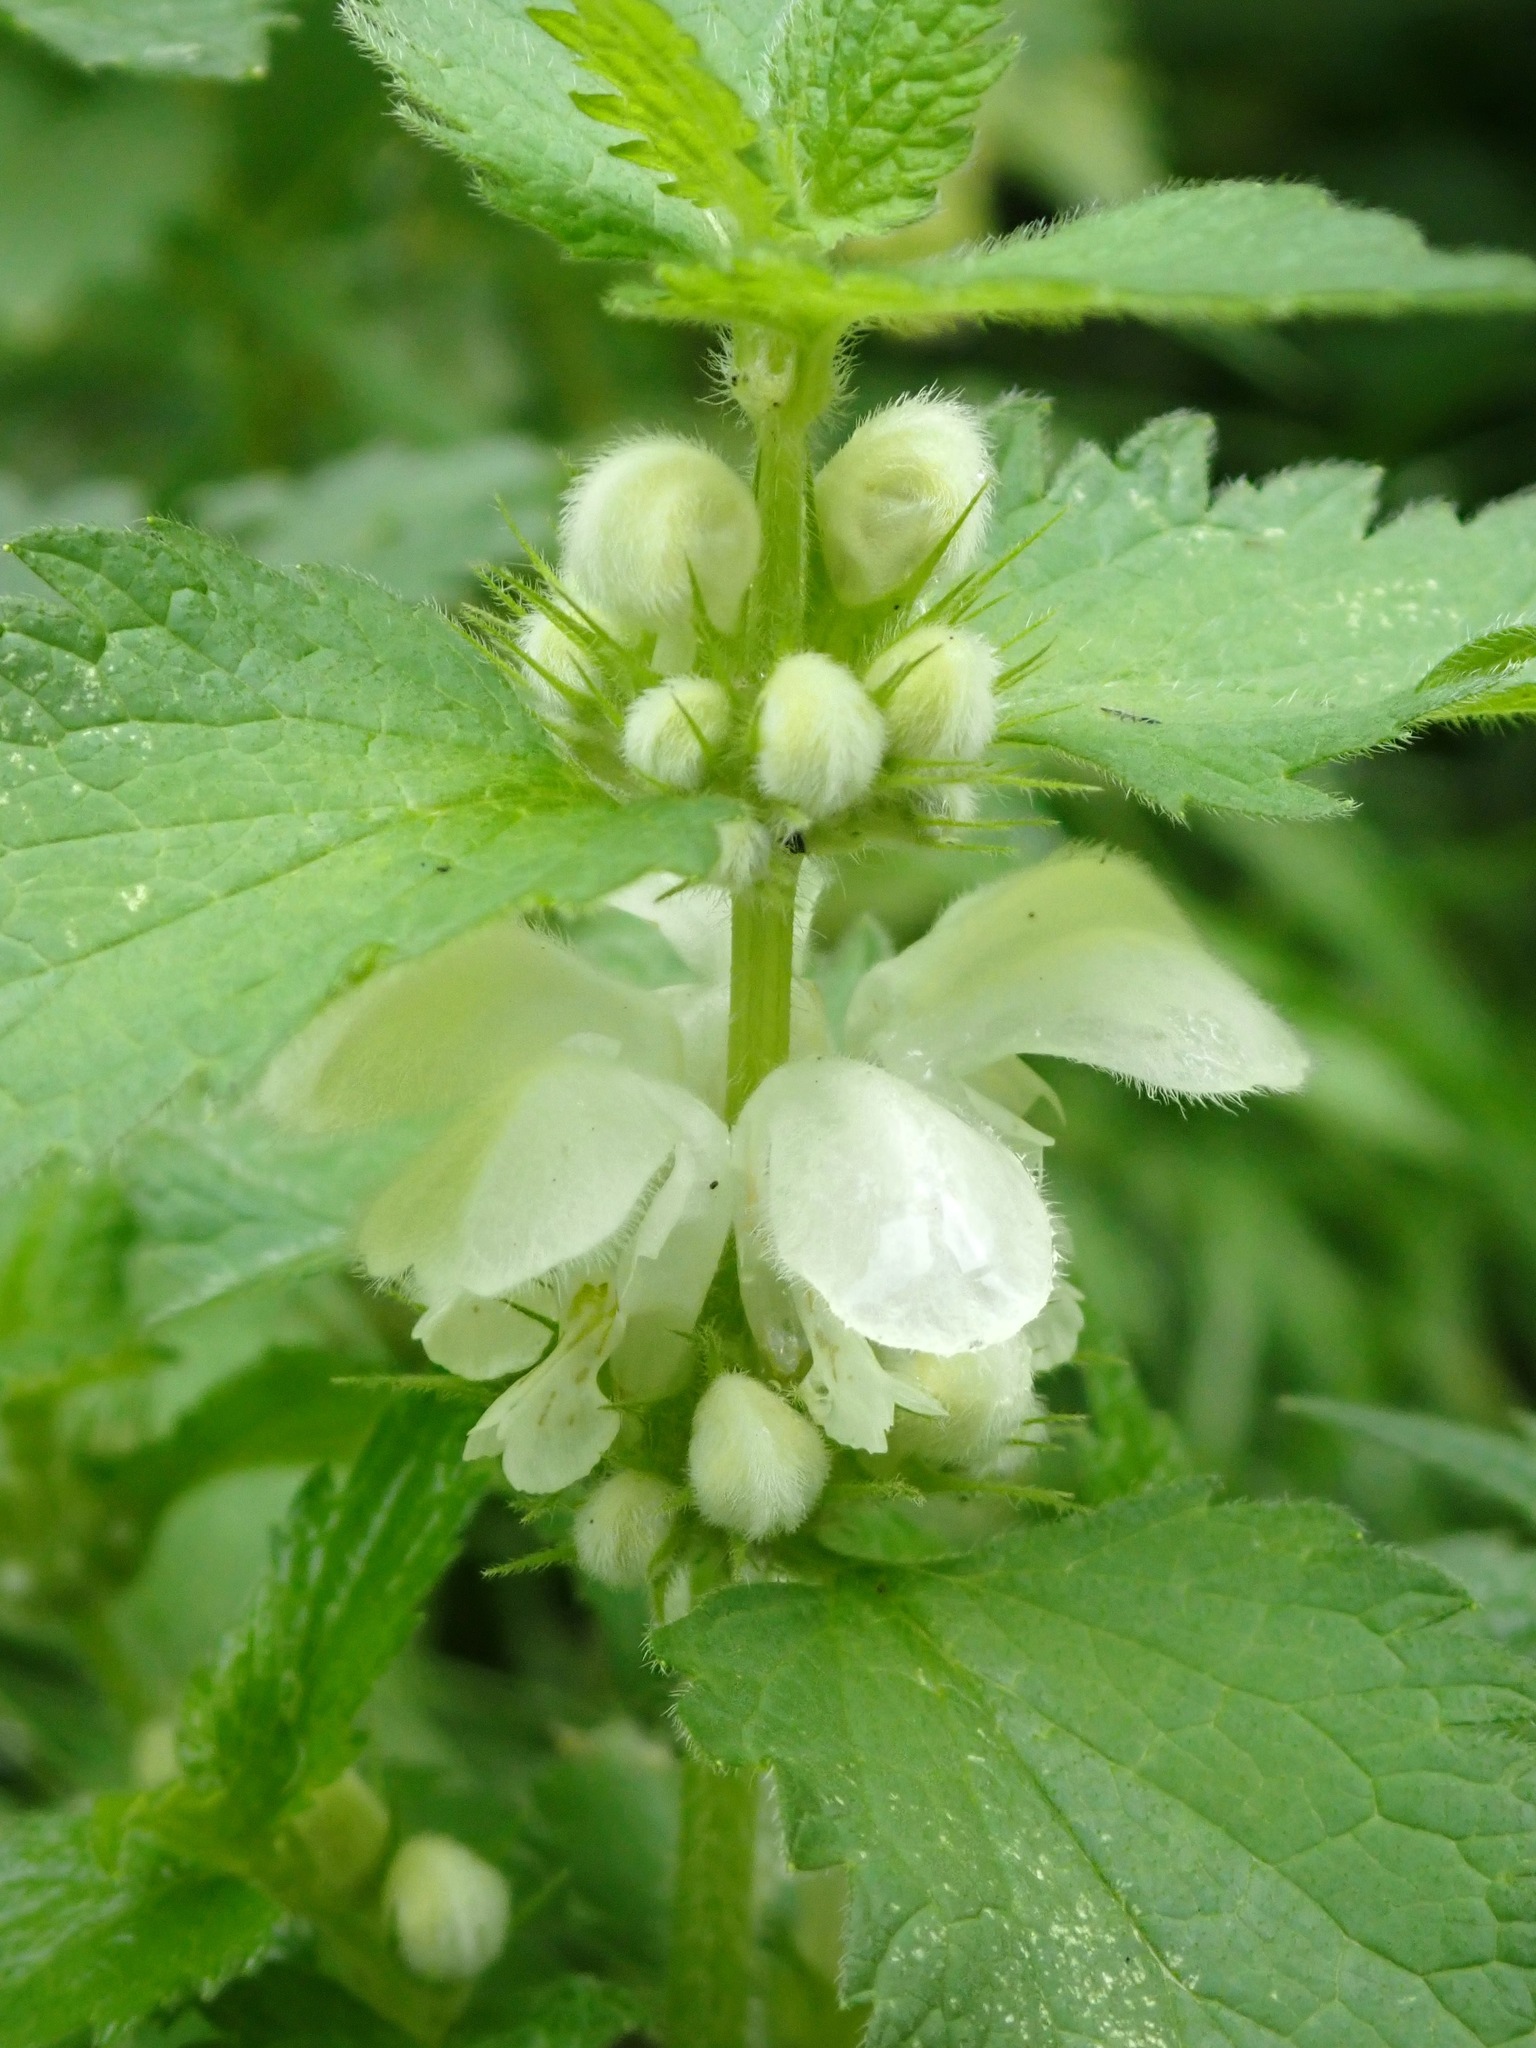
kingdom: Plantae
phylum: Tracheophyta
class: Magnoliopsida
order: Lamiales
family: Lamiaceae
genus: Lamium
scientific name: Lamium album
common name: White dead-nettle
